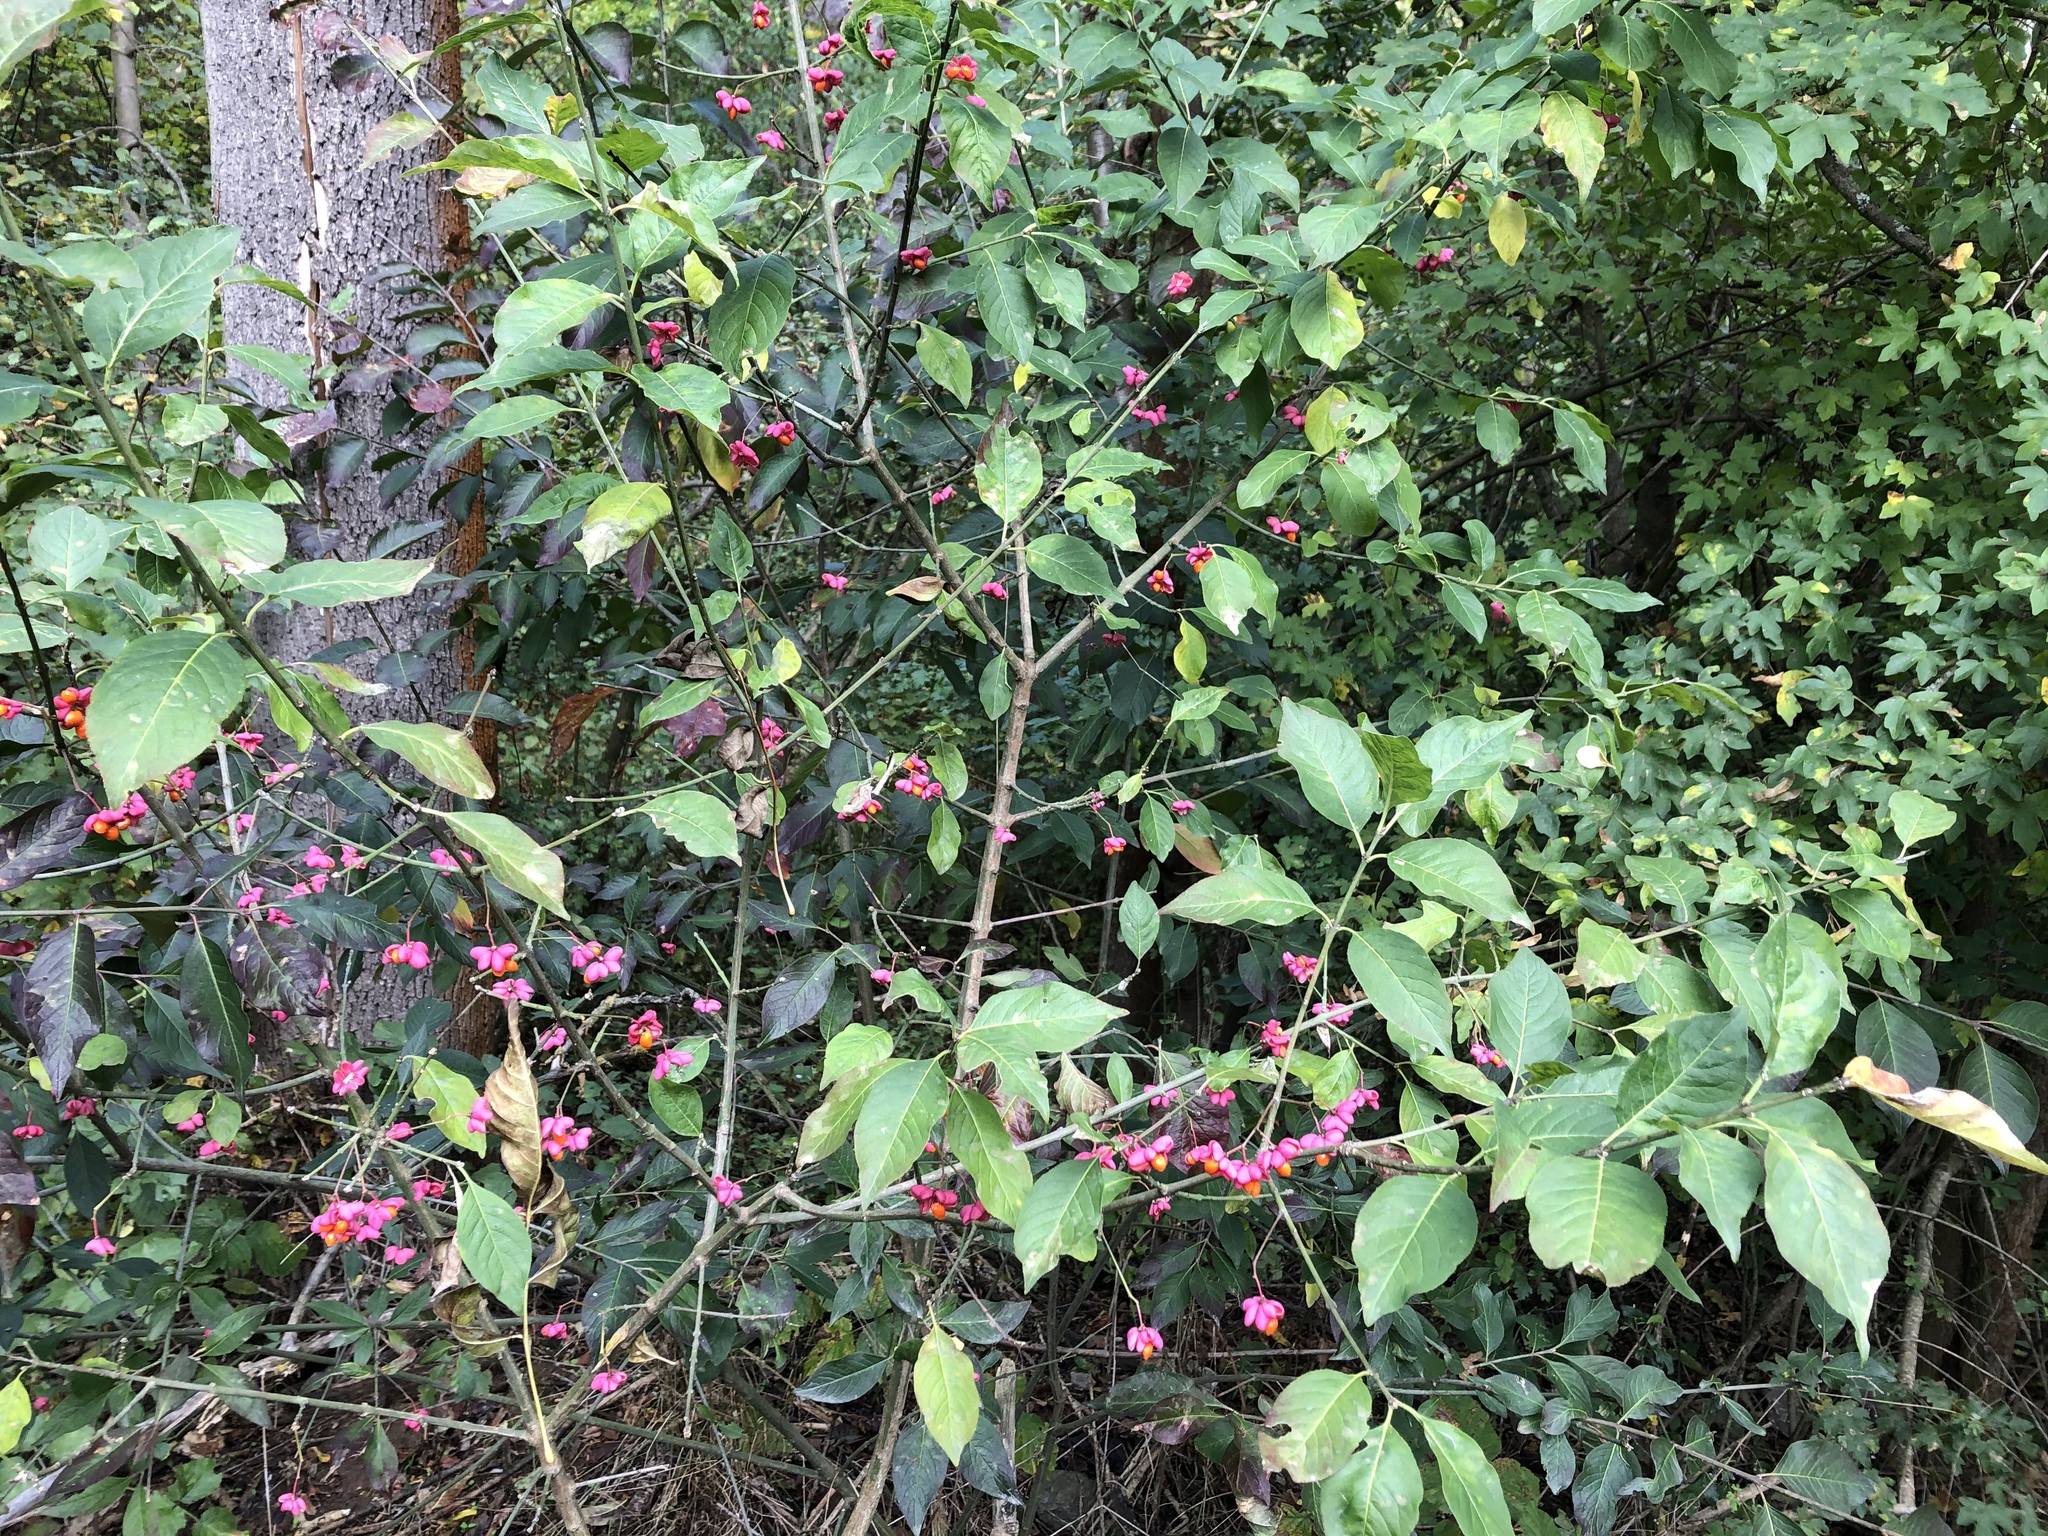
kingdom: Plantae
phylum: Tracheophyta
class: Magnoliopsida
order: Celastrales
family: Celastraceae
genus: Euonymus
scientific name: Euonymus europaeus
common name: Spindle
